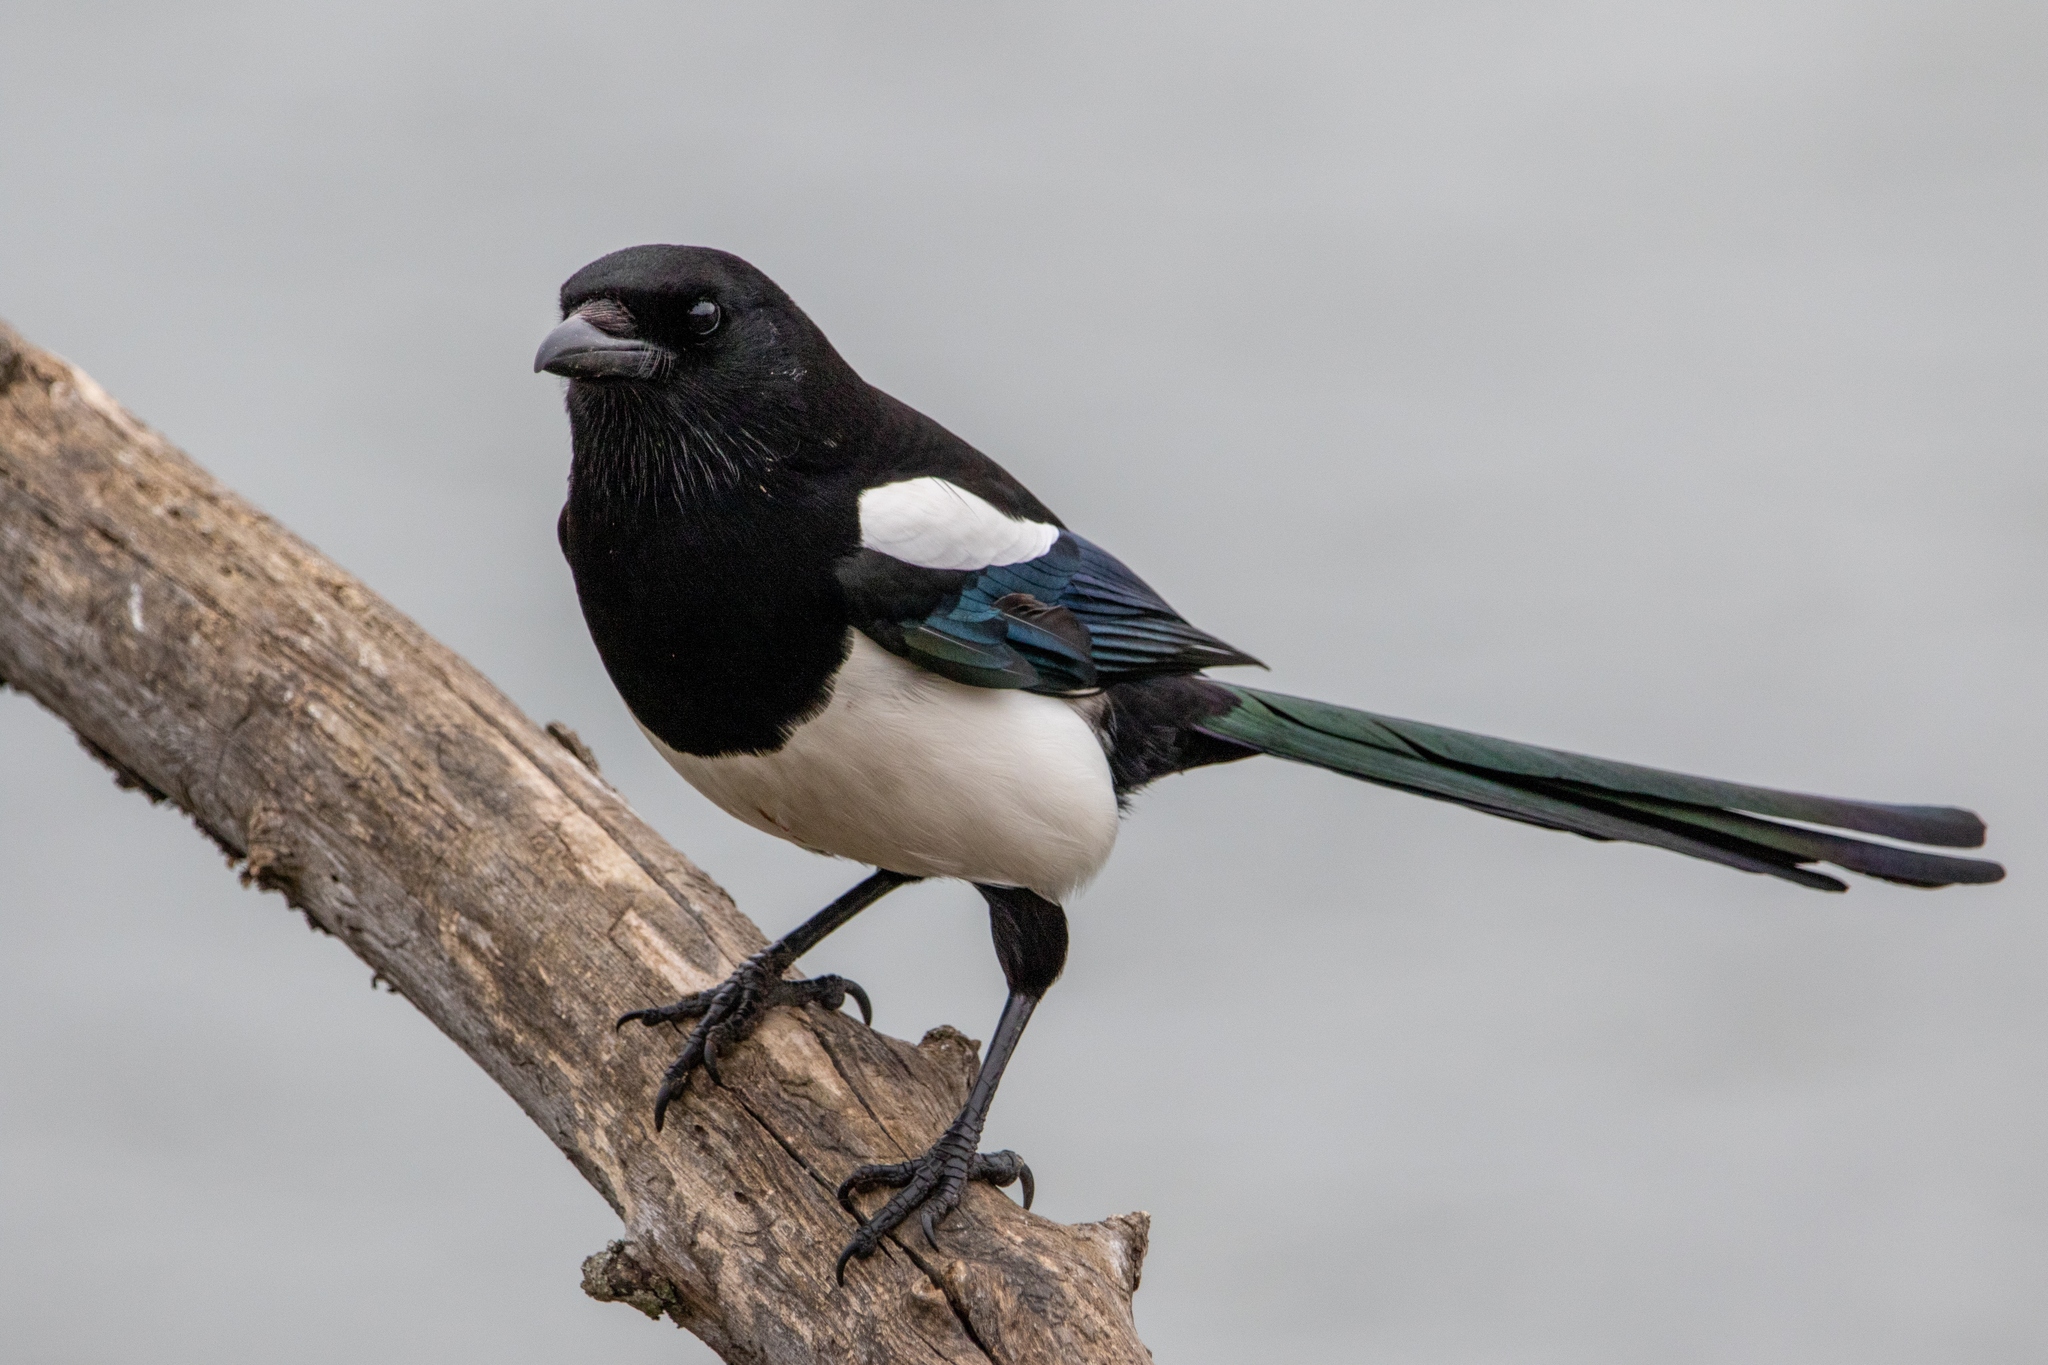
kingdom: Animalia
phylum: Chordata
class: Aves
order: Passeriformes
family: Corvidae
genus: Pica
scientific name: Pica pica
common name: Eurasian magpie
